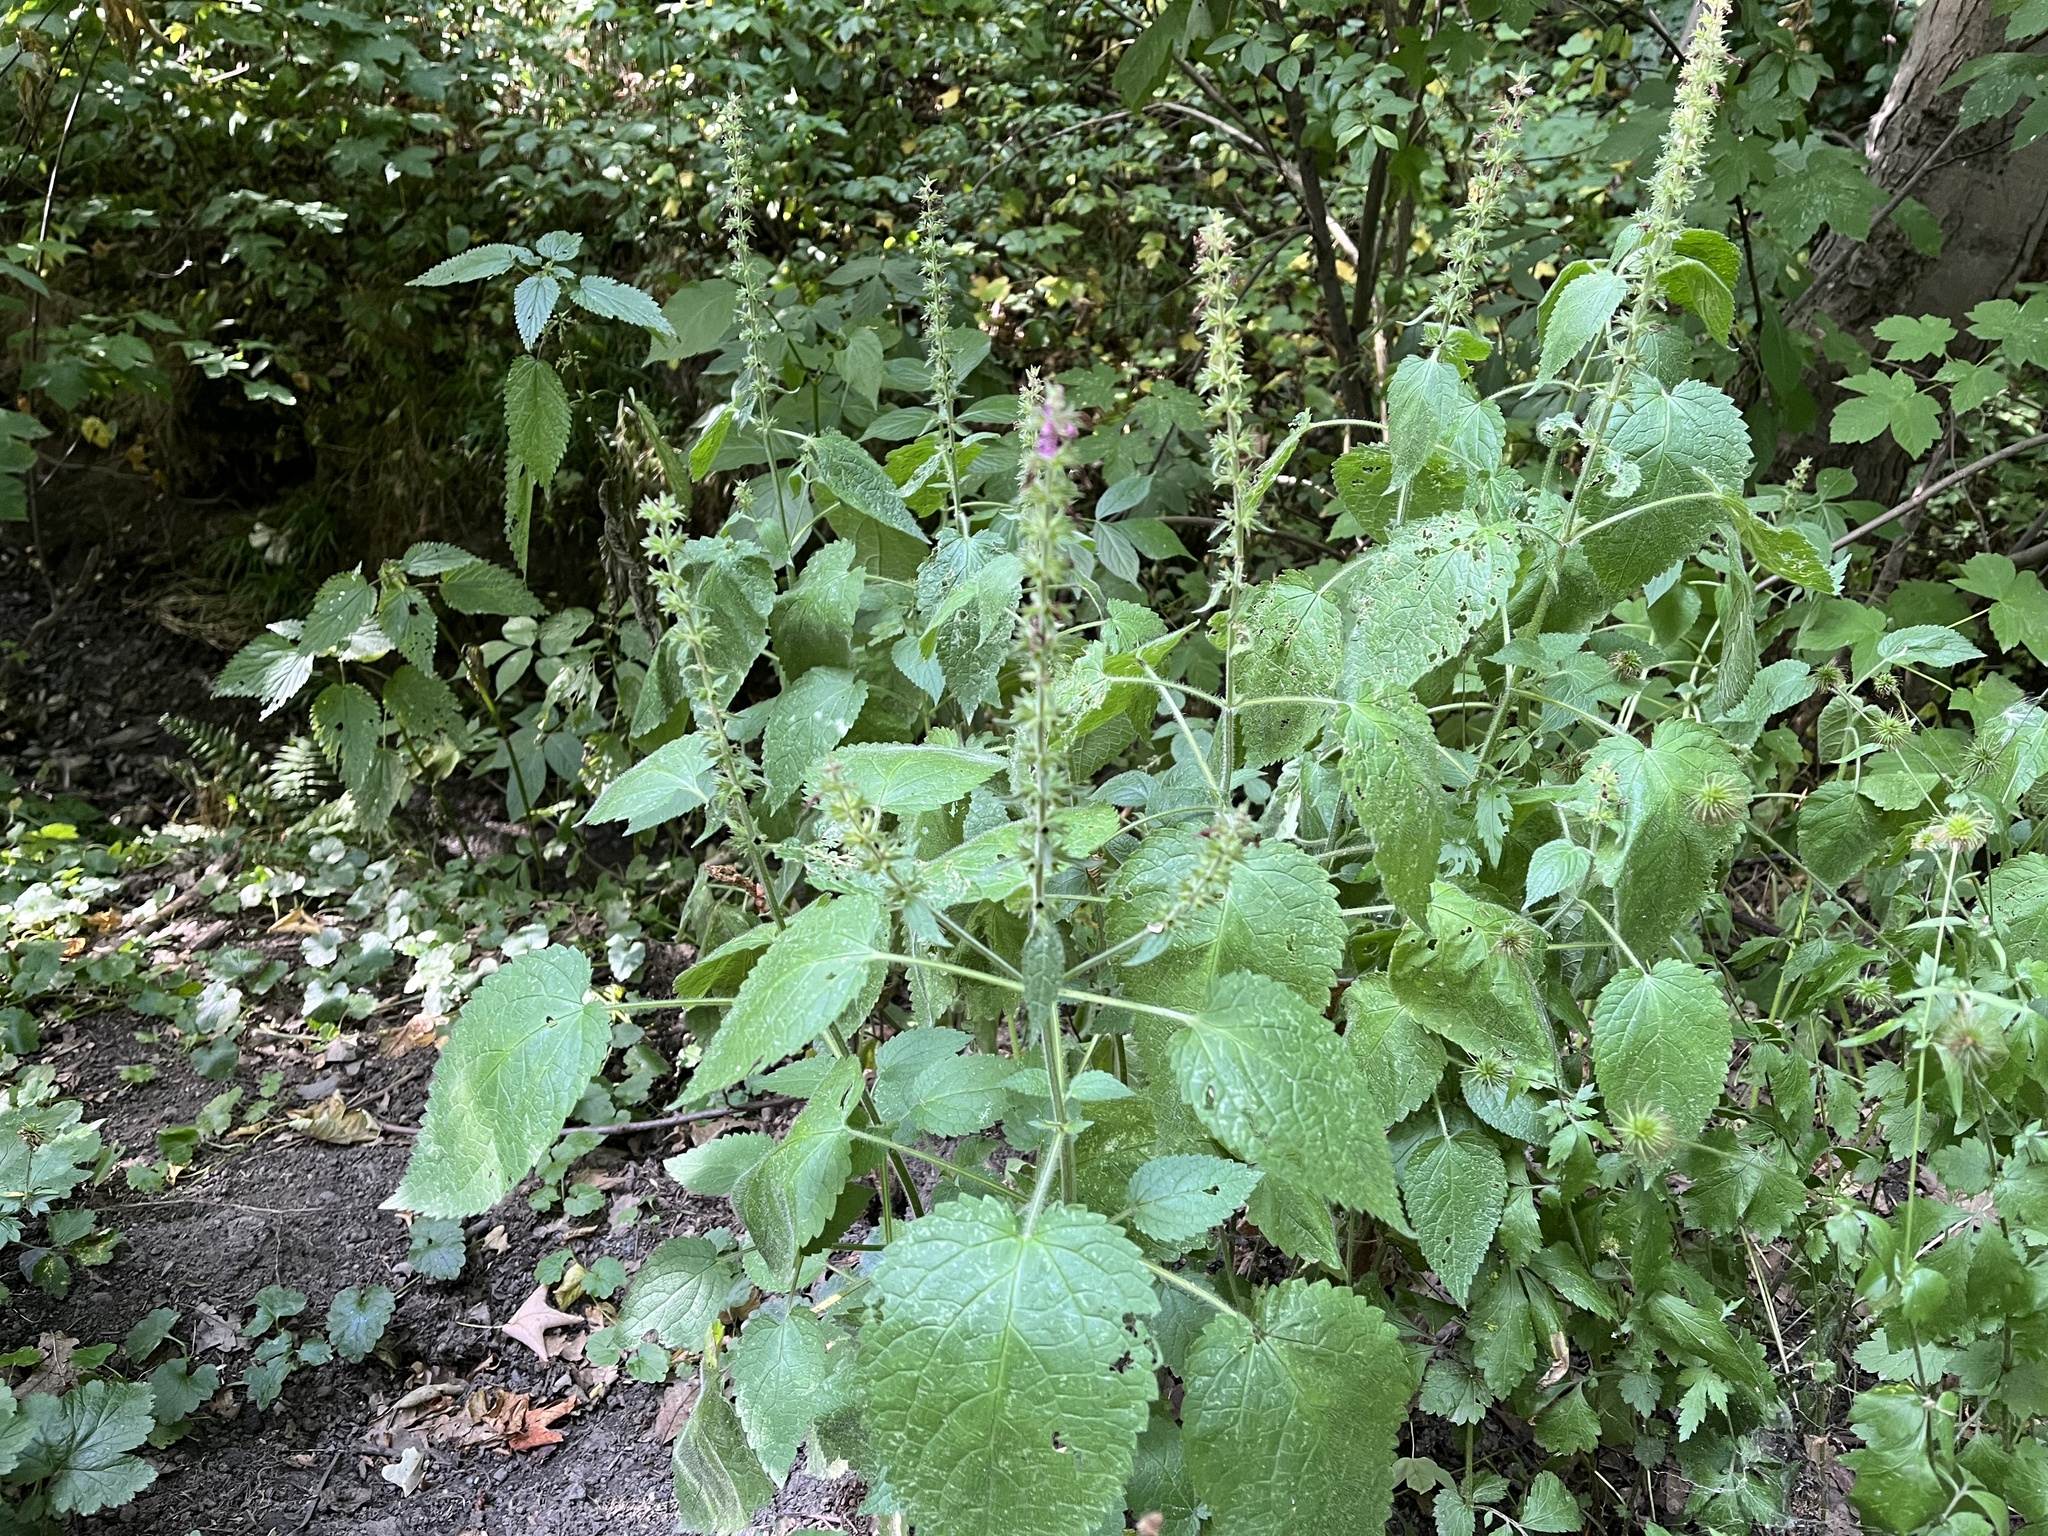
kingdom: Plantae
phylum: Tracheophyta
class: Magnoliopsida
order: Lamiales
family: Lamiaceae
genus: Stachys
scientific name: Stachys sylvatica
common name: Hedge woundwort
